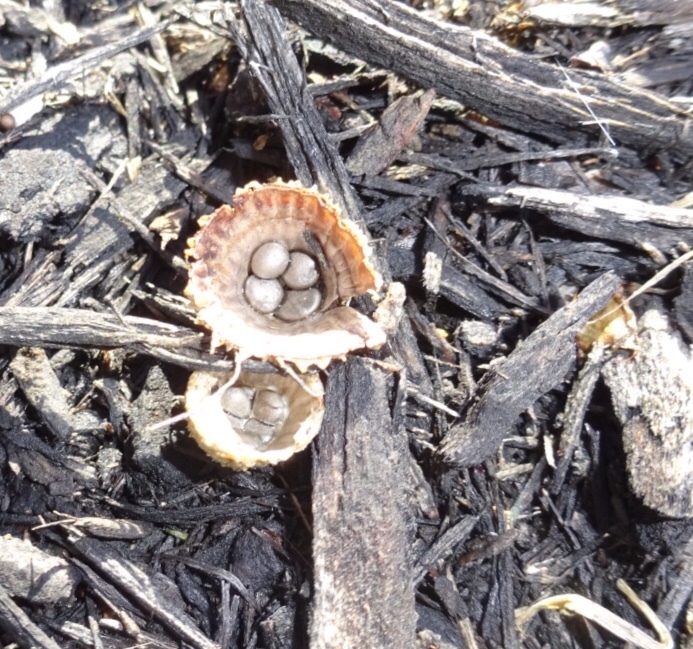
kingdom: Fungi
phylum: Basidiomycota
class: Agaricomycetes
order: Agaricales
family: Agaricaceae
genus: Cyathus
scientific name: Cyathus striatus
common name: Fluted bird's nest
